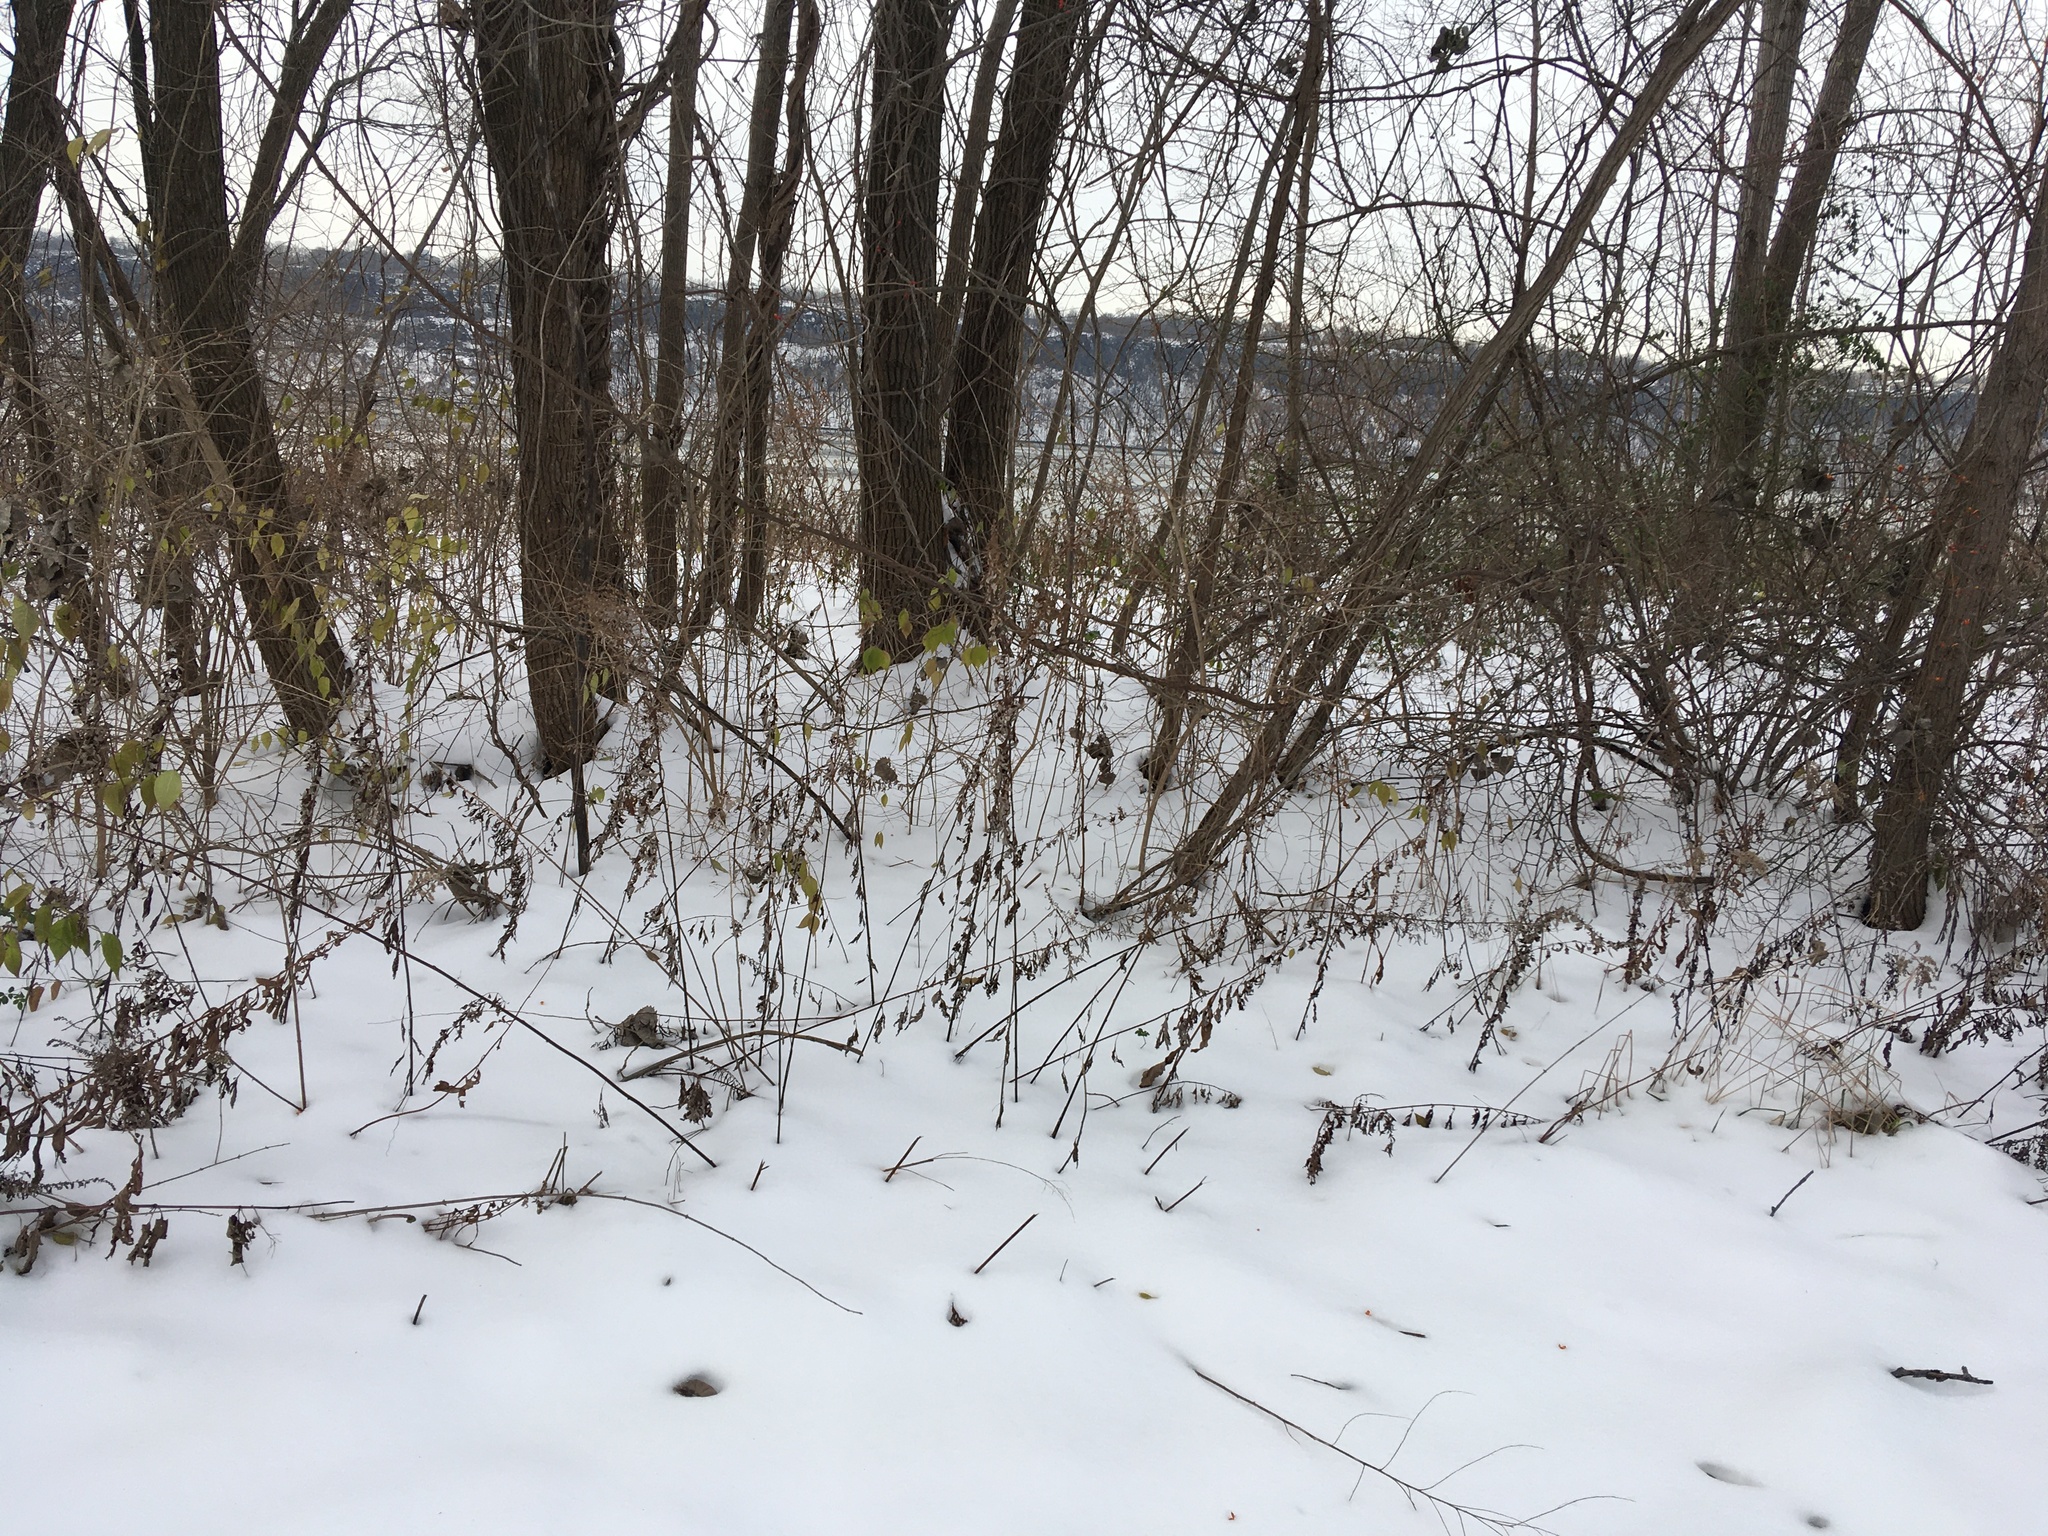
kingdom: Plantae
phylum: Tracheophyta
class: Magnoliopsida
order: Asterales
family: Asteraceae
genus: Artemisia
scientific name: Artemisia vulgaris
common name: Mugwort
